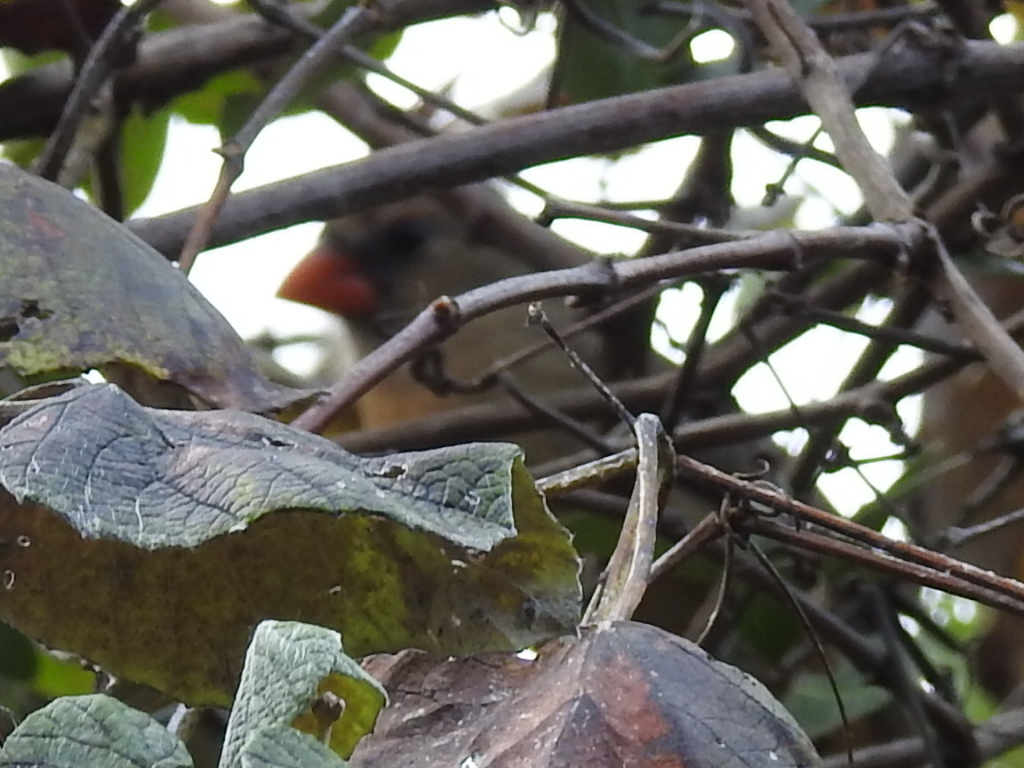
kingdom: Animalia
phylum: Chordata
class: Aves
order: Passeriformes
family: Cardinalidae
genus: Cardinalis
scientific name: Cardinalis cardinalis
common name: Northern cardinal
